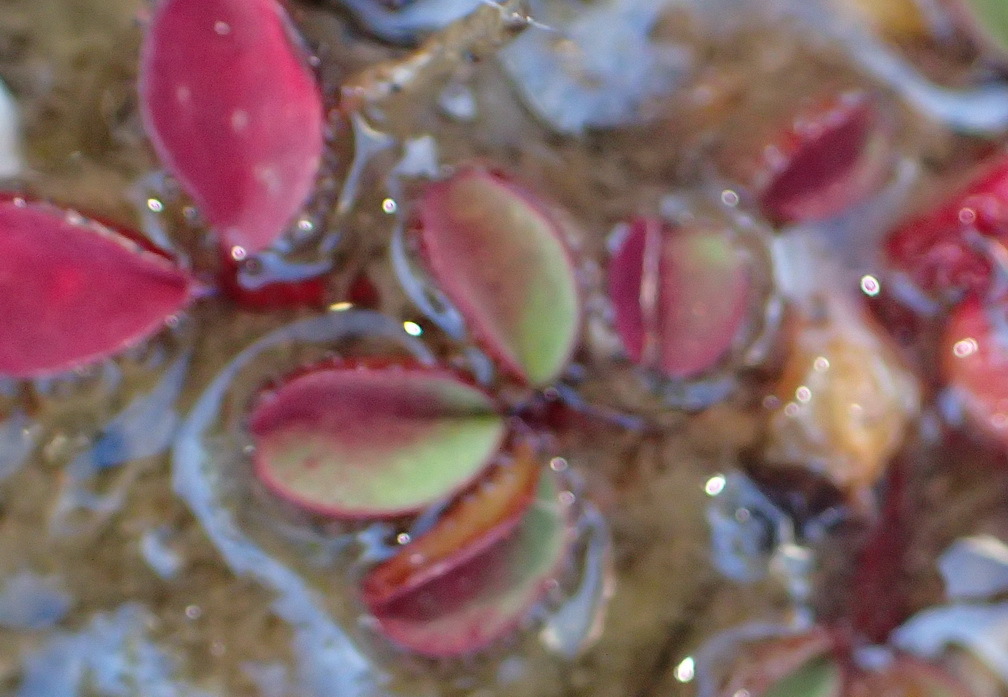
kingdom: Plantae
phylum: Tracheophyta
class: Magnoliopsida
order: Oxalidales
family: Oxalidaceae
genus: Oxalis
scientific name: Oxalis amblyosepala
